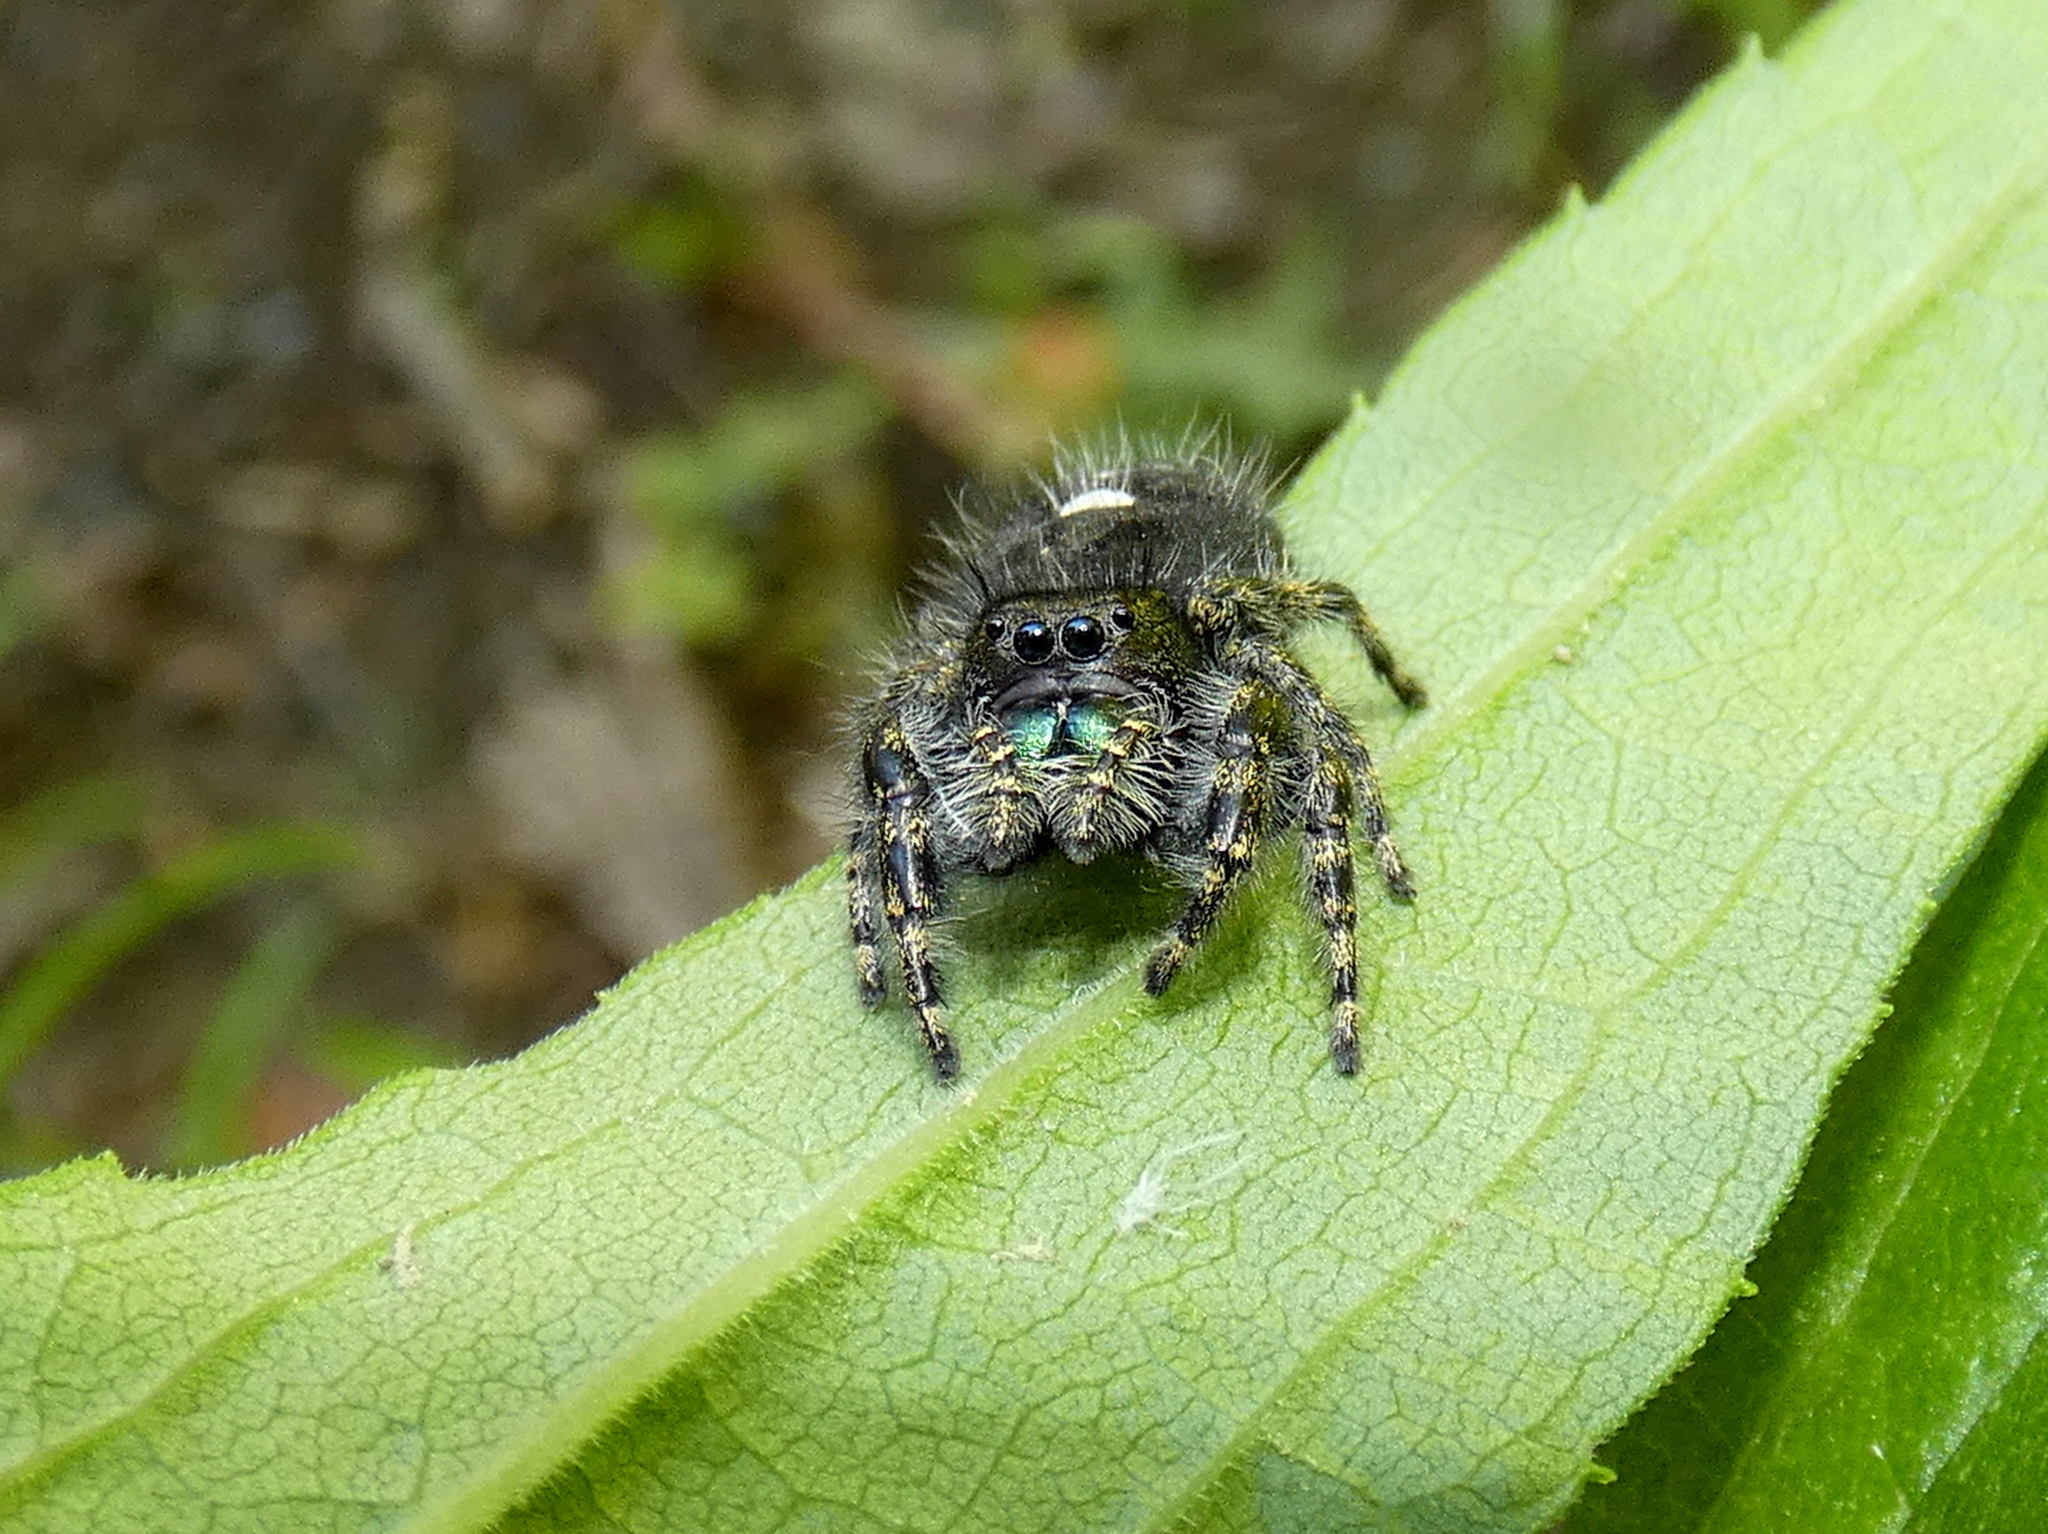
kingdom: Animalia
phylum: Arthropoda
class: Arachnida
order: Araneae
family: Salticidae
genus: Phidippus
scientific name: Phidippus audax
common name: Bold jumper
